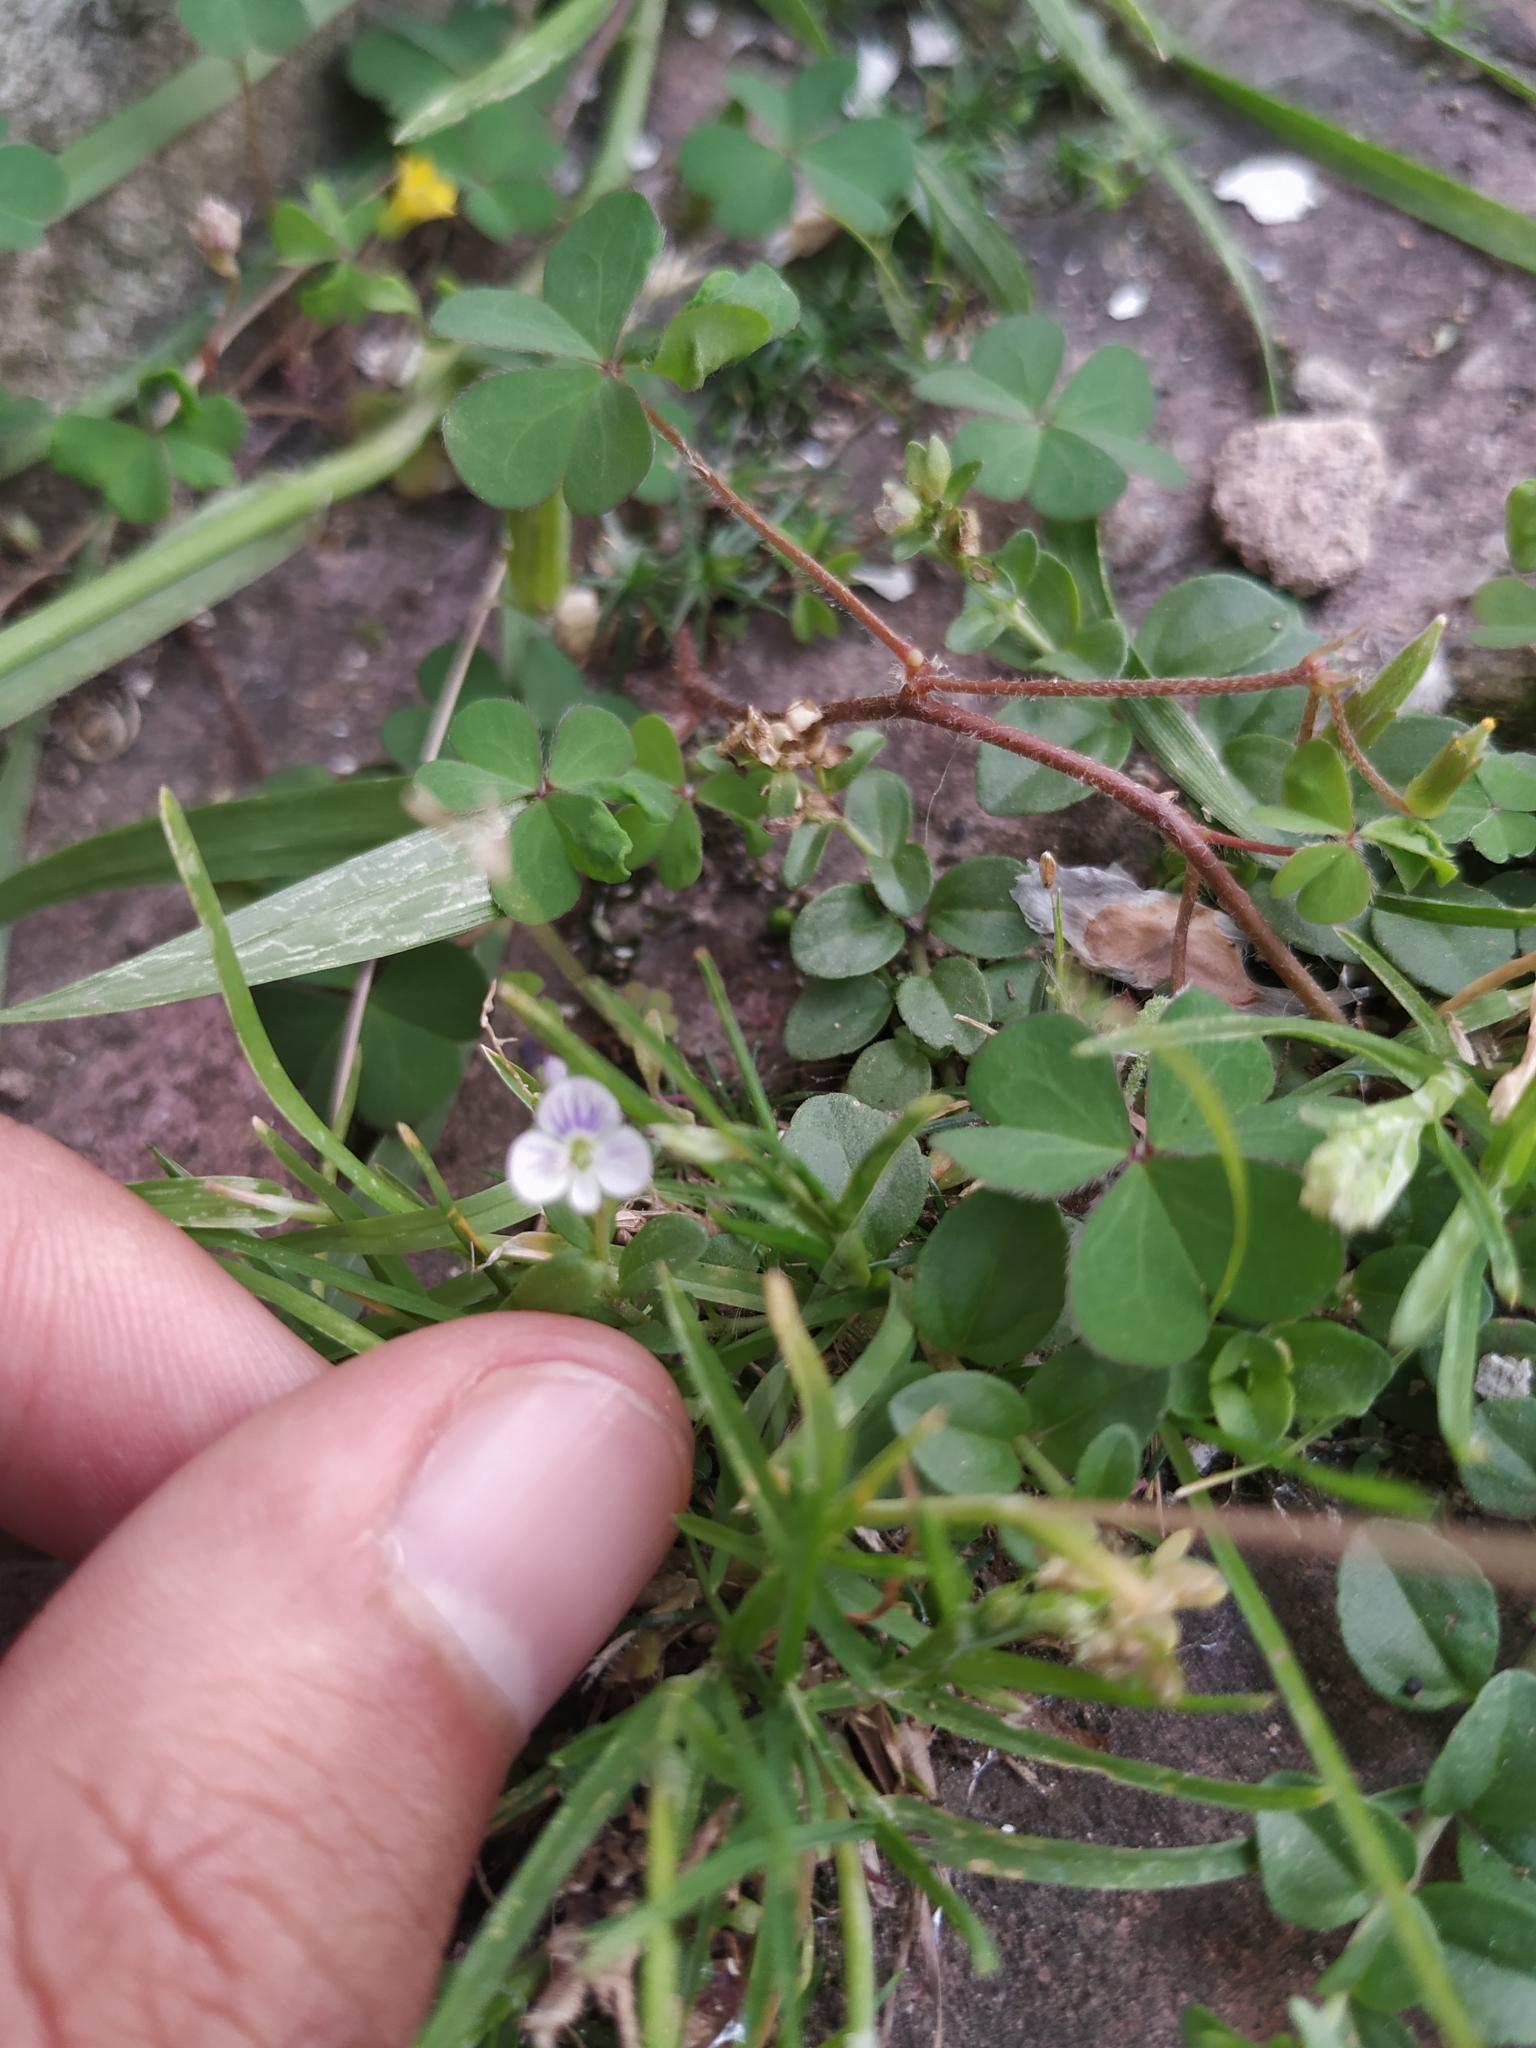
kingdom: Plantae
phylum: Tracheophyta
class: Magnoliopsida
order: Lamiales
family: Plantaginaceae
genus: Veronica
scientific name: Veronica serpyllifolia
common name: Thyme-leaved speedwell
